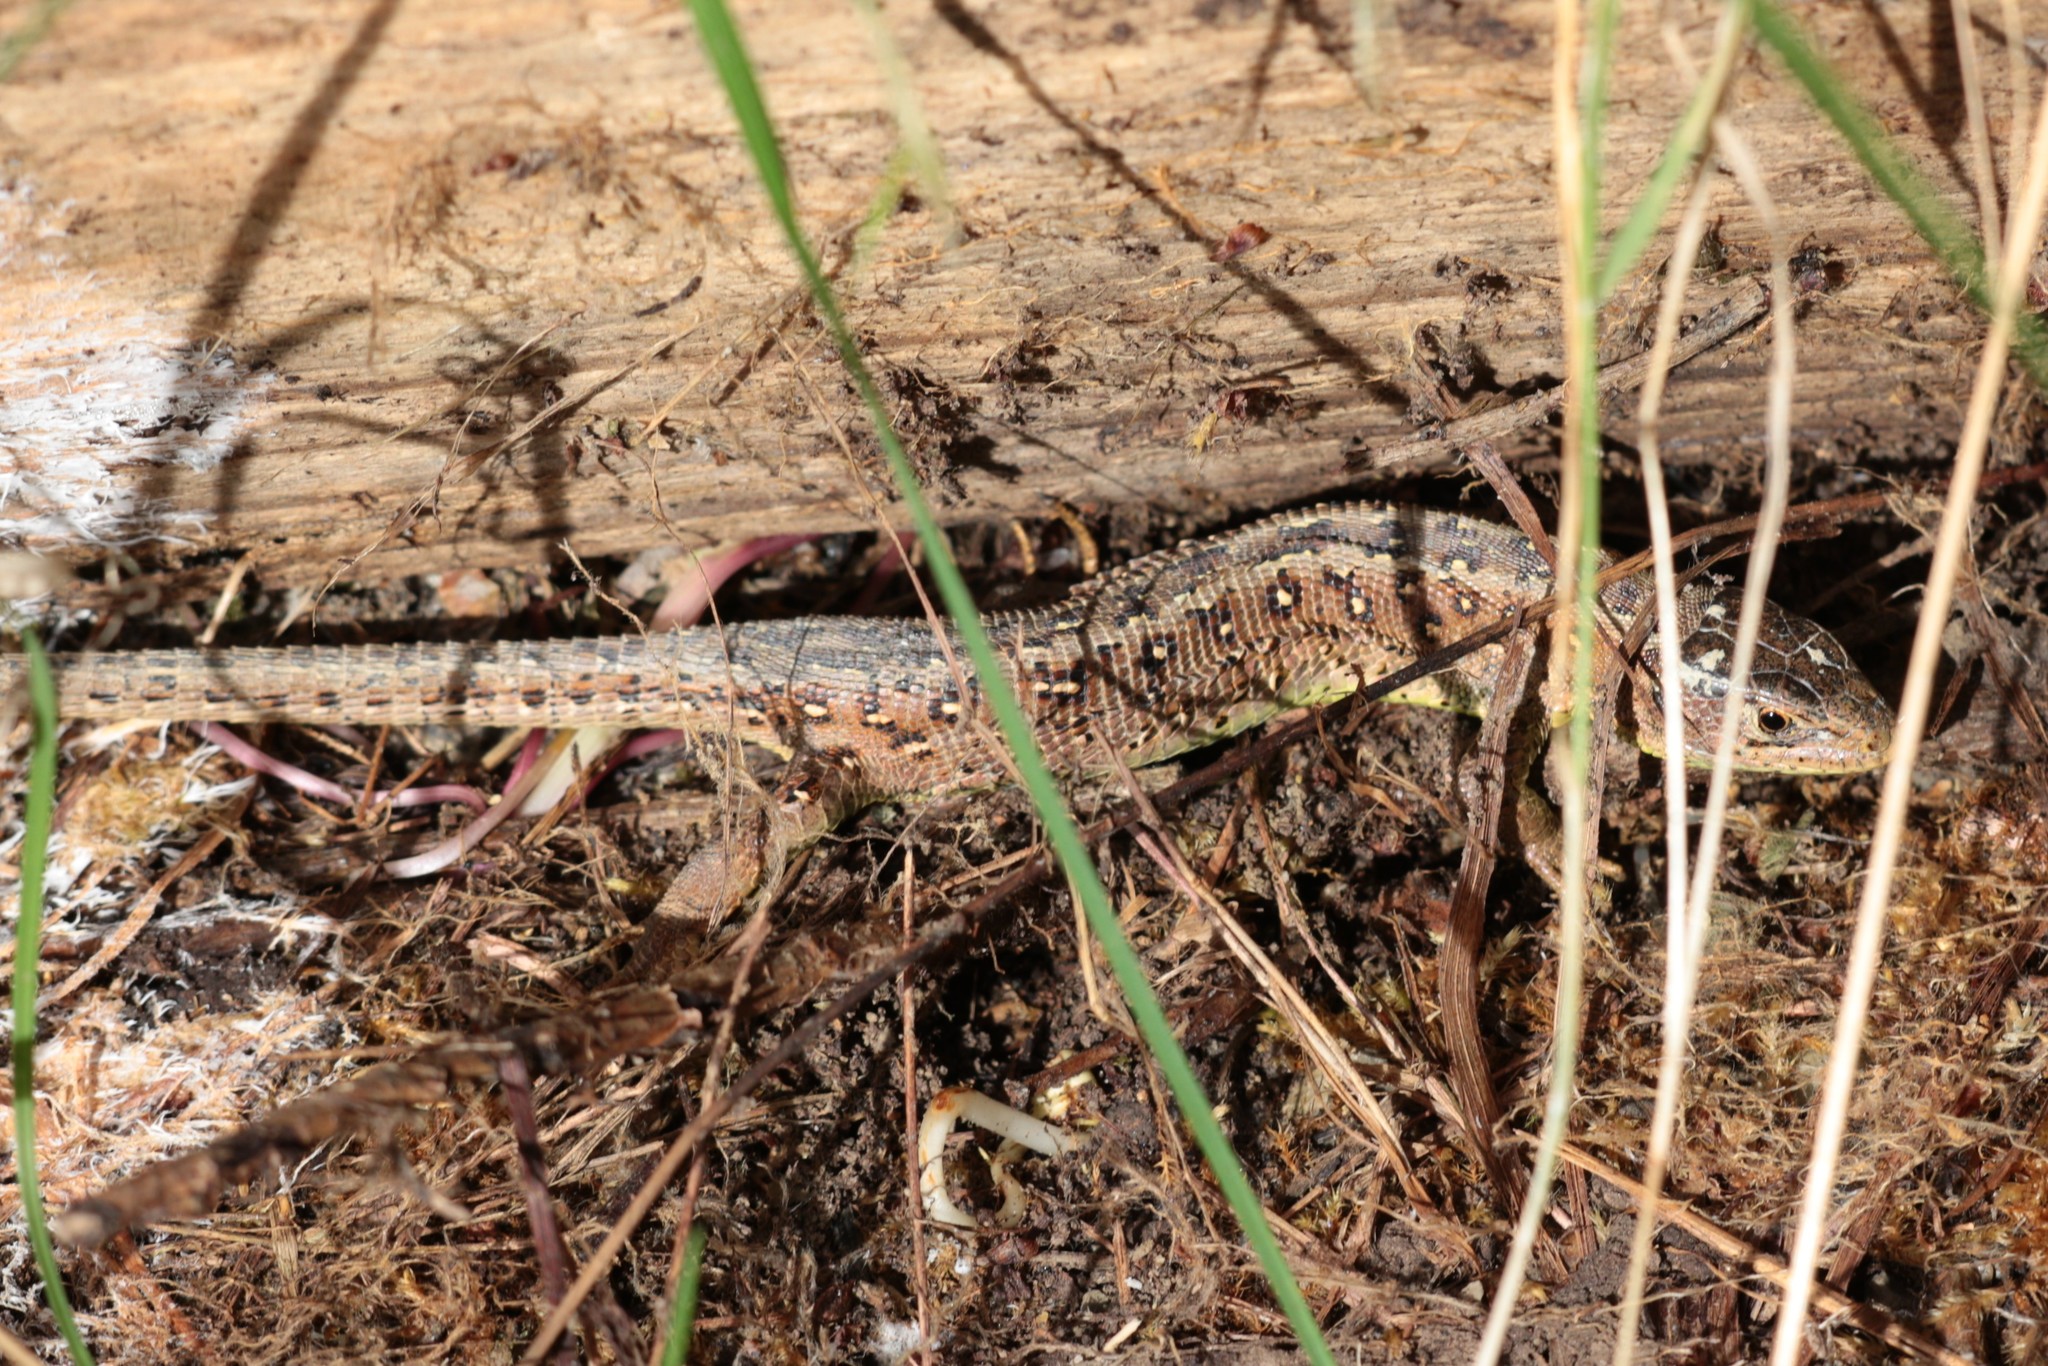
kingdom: Animalia
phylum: Chordata
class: Squamata
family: Lacertidae
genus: Lacerta
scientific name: Lacerta agilis
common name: Sand lizard
